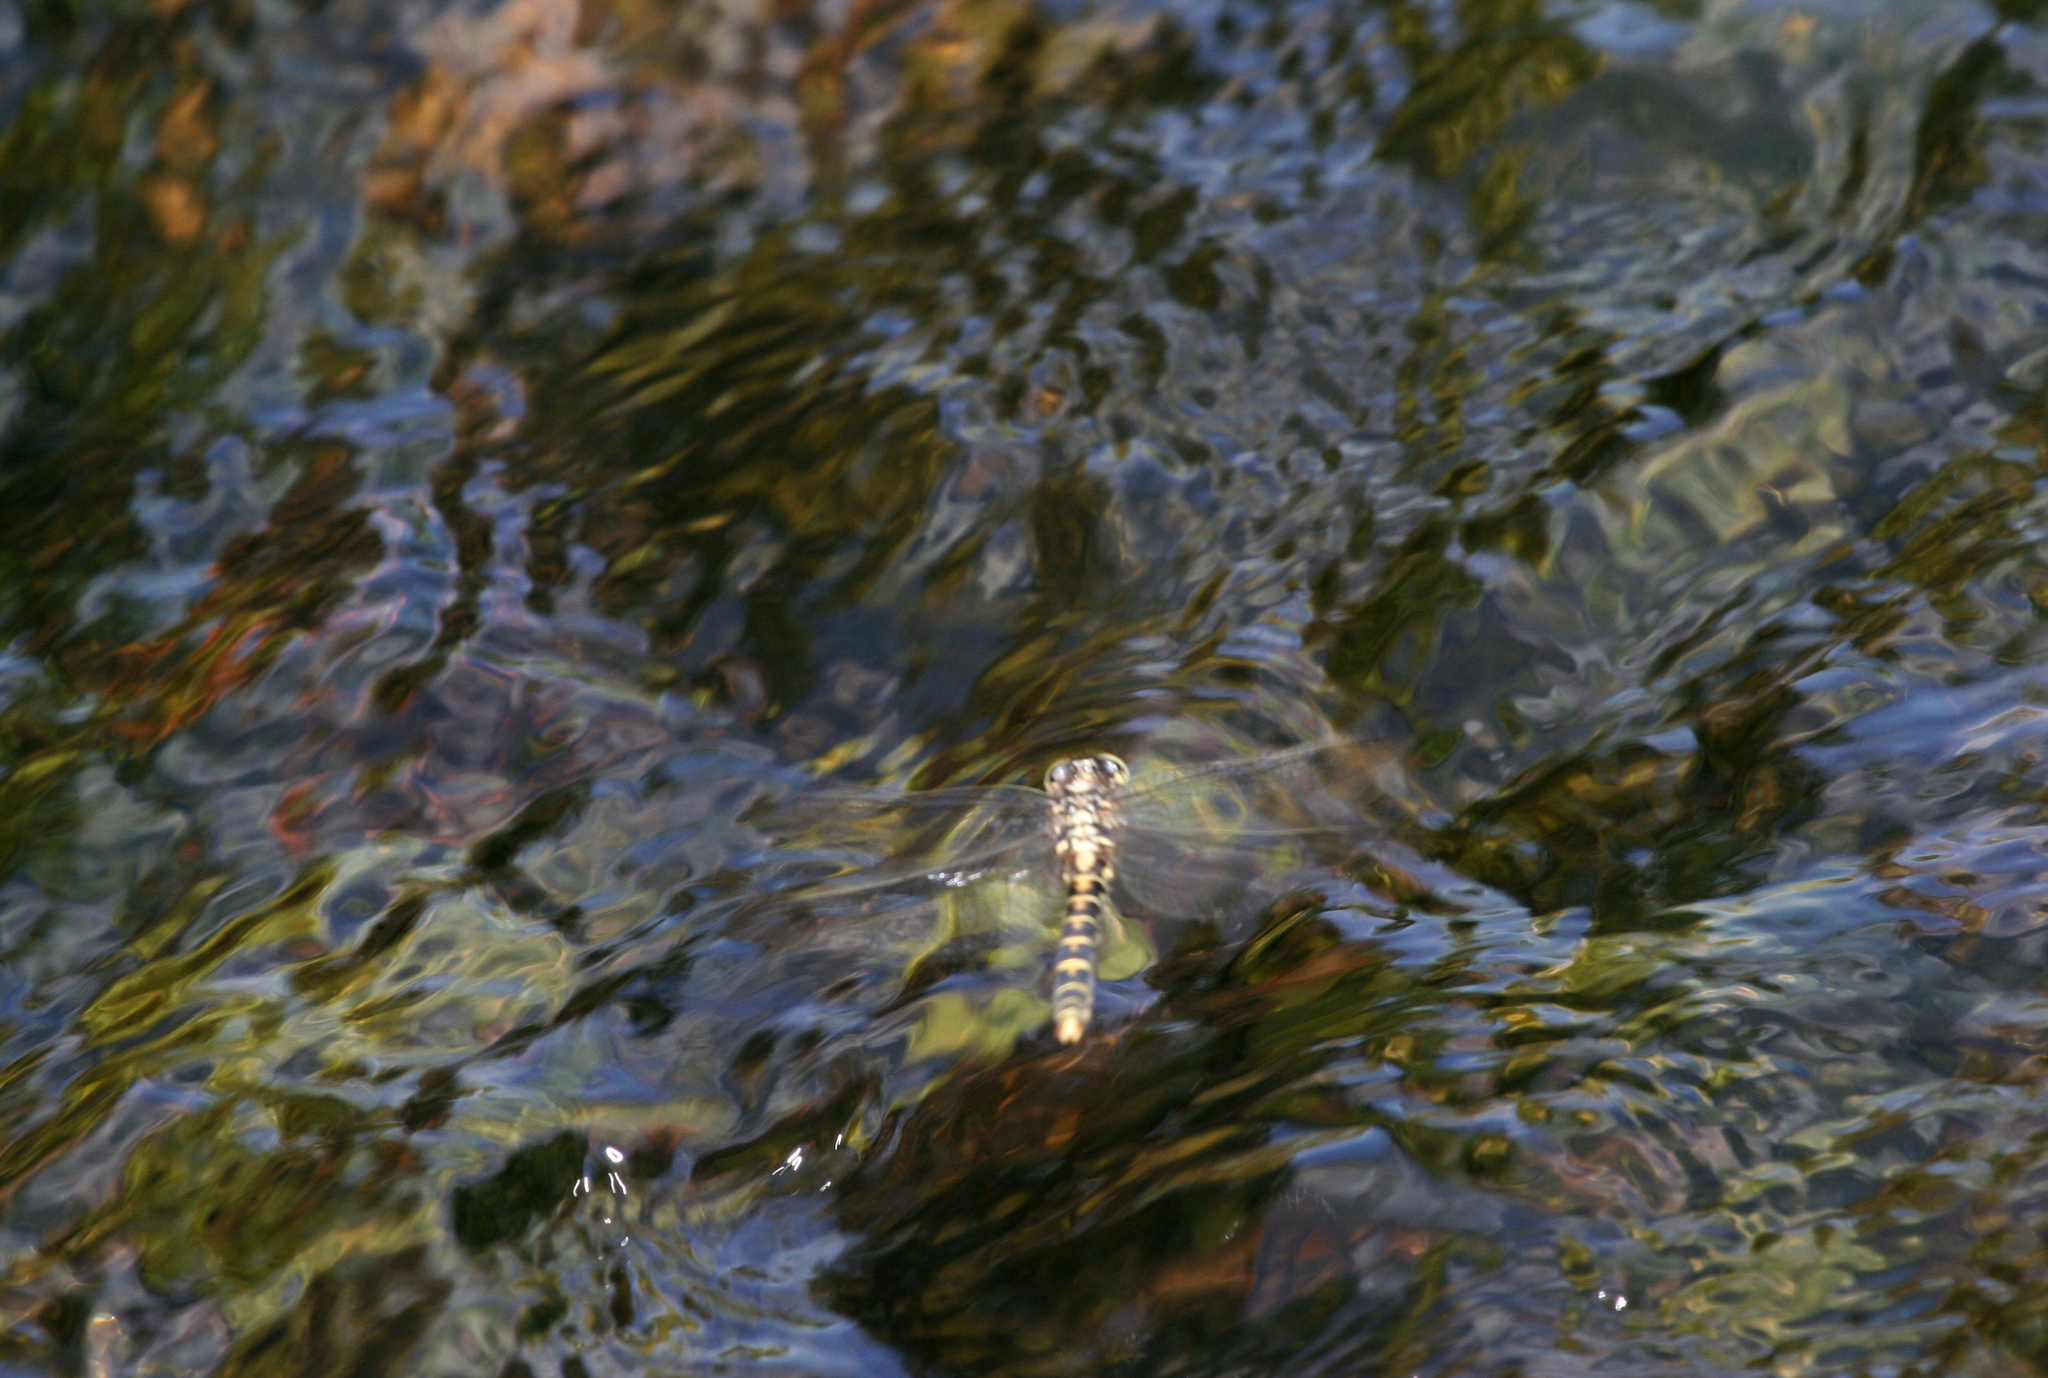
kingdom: Animalia
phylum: Arthropoda
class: Insecta
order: Odonata
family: Gomphidae
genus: Onychogomphus
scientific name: Onychogomphus forcipatus
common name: Small pincertail
